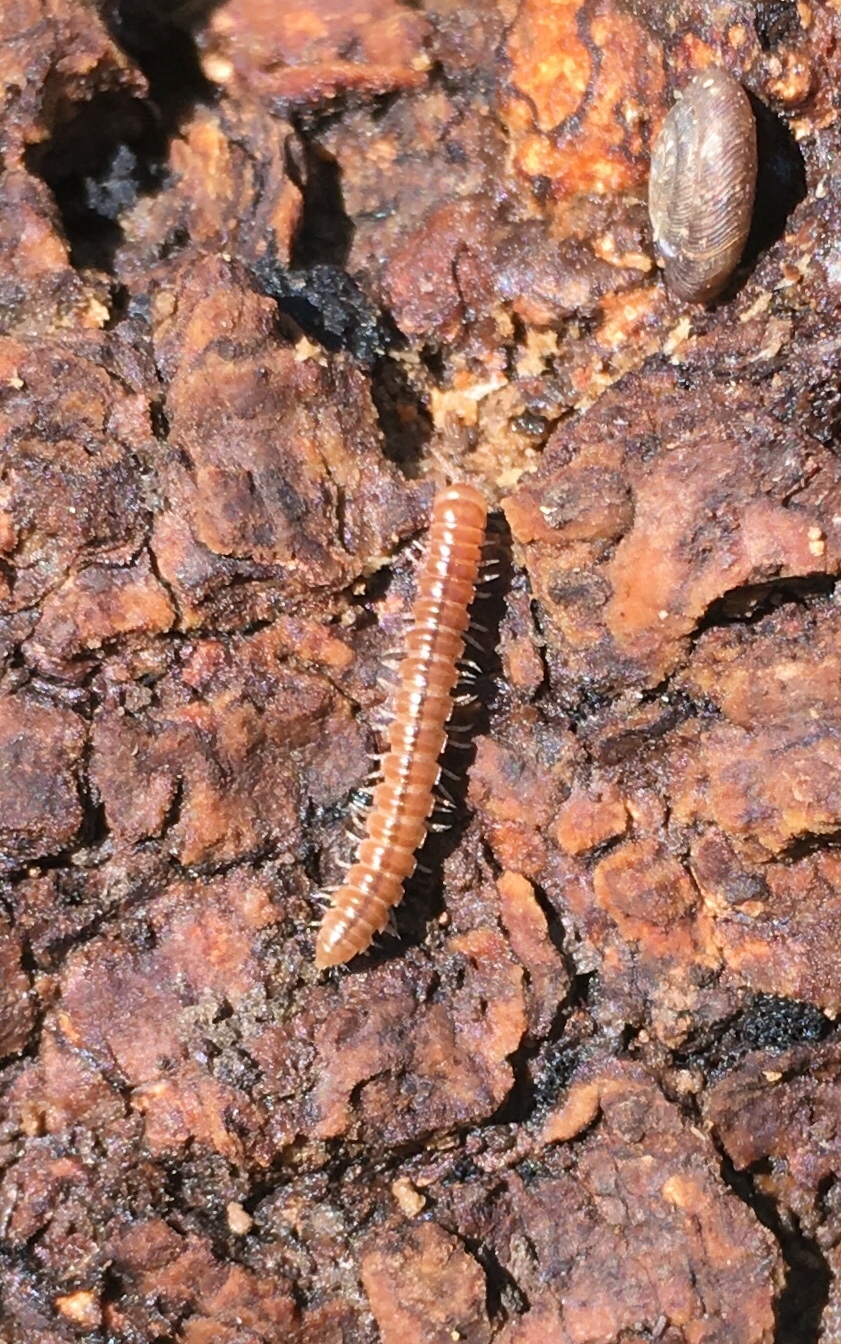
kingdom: Animalia
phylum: Arthropoda
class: Diplopoda
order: Polydesmida
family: Paradoxosomatidae
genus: Oxidus
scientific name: Oxidus gracilis
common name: Greenhouse millipede
